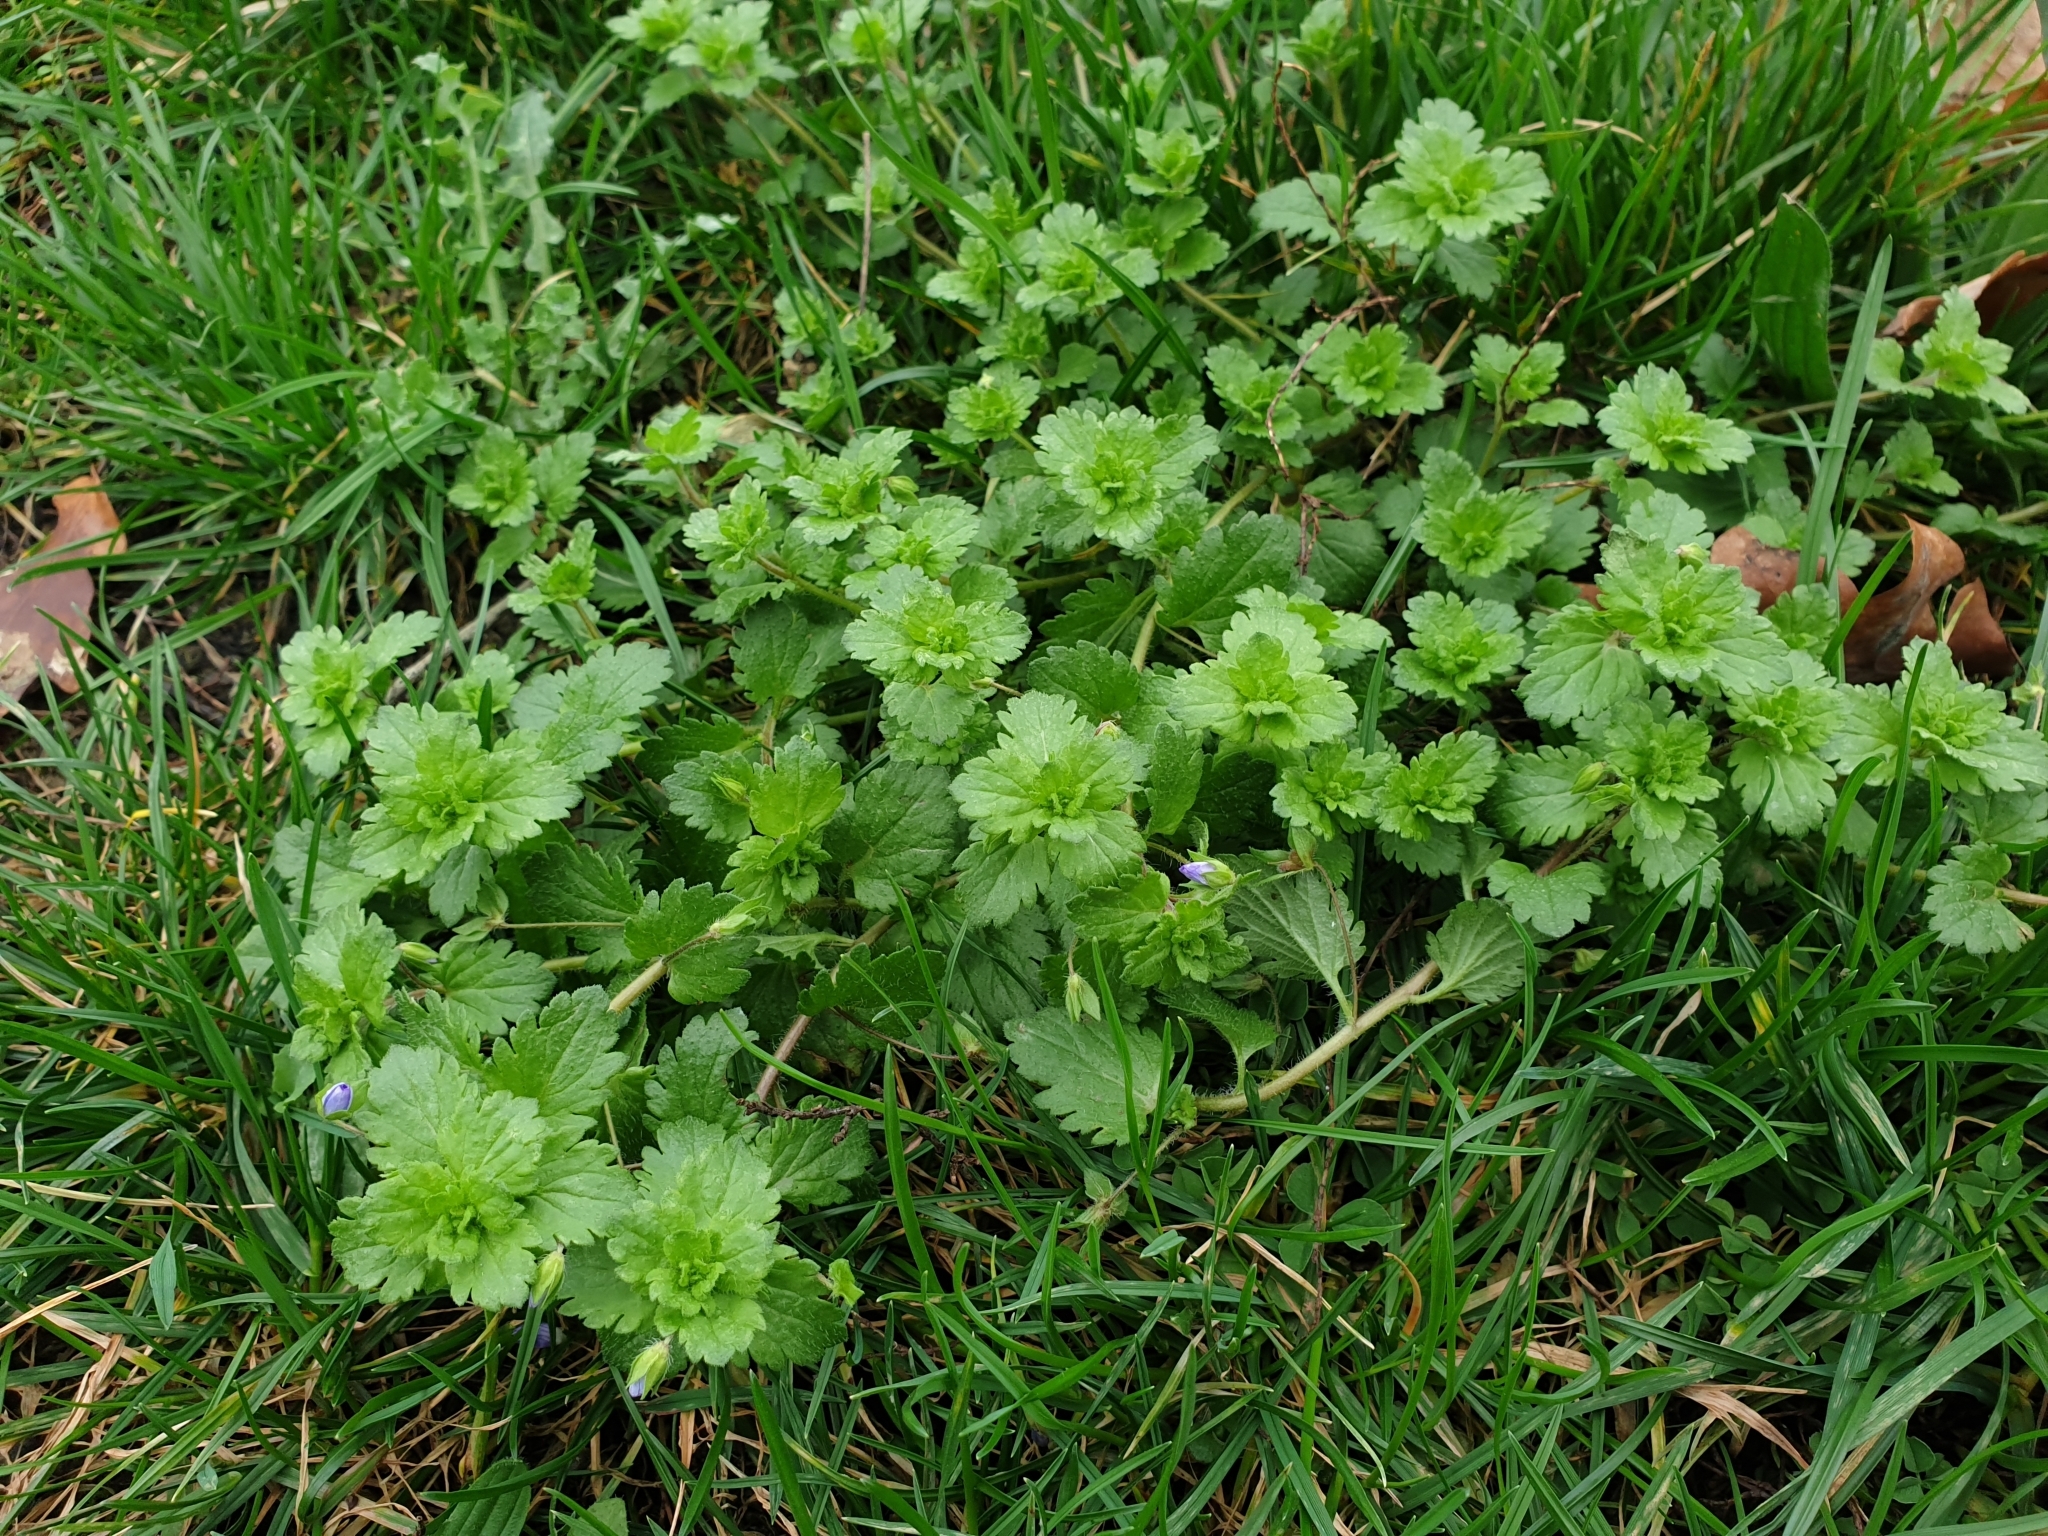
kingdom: Plantae
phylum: Tracheophyta
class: Magnoliopsida
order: Lamiales
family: Plantaginaceae
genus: Veronica
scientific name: Veronica persica
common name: Common field-speedwell
